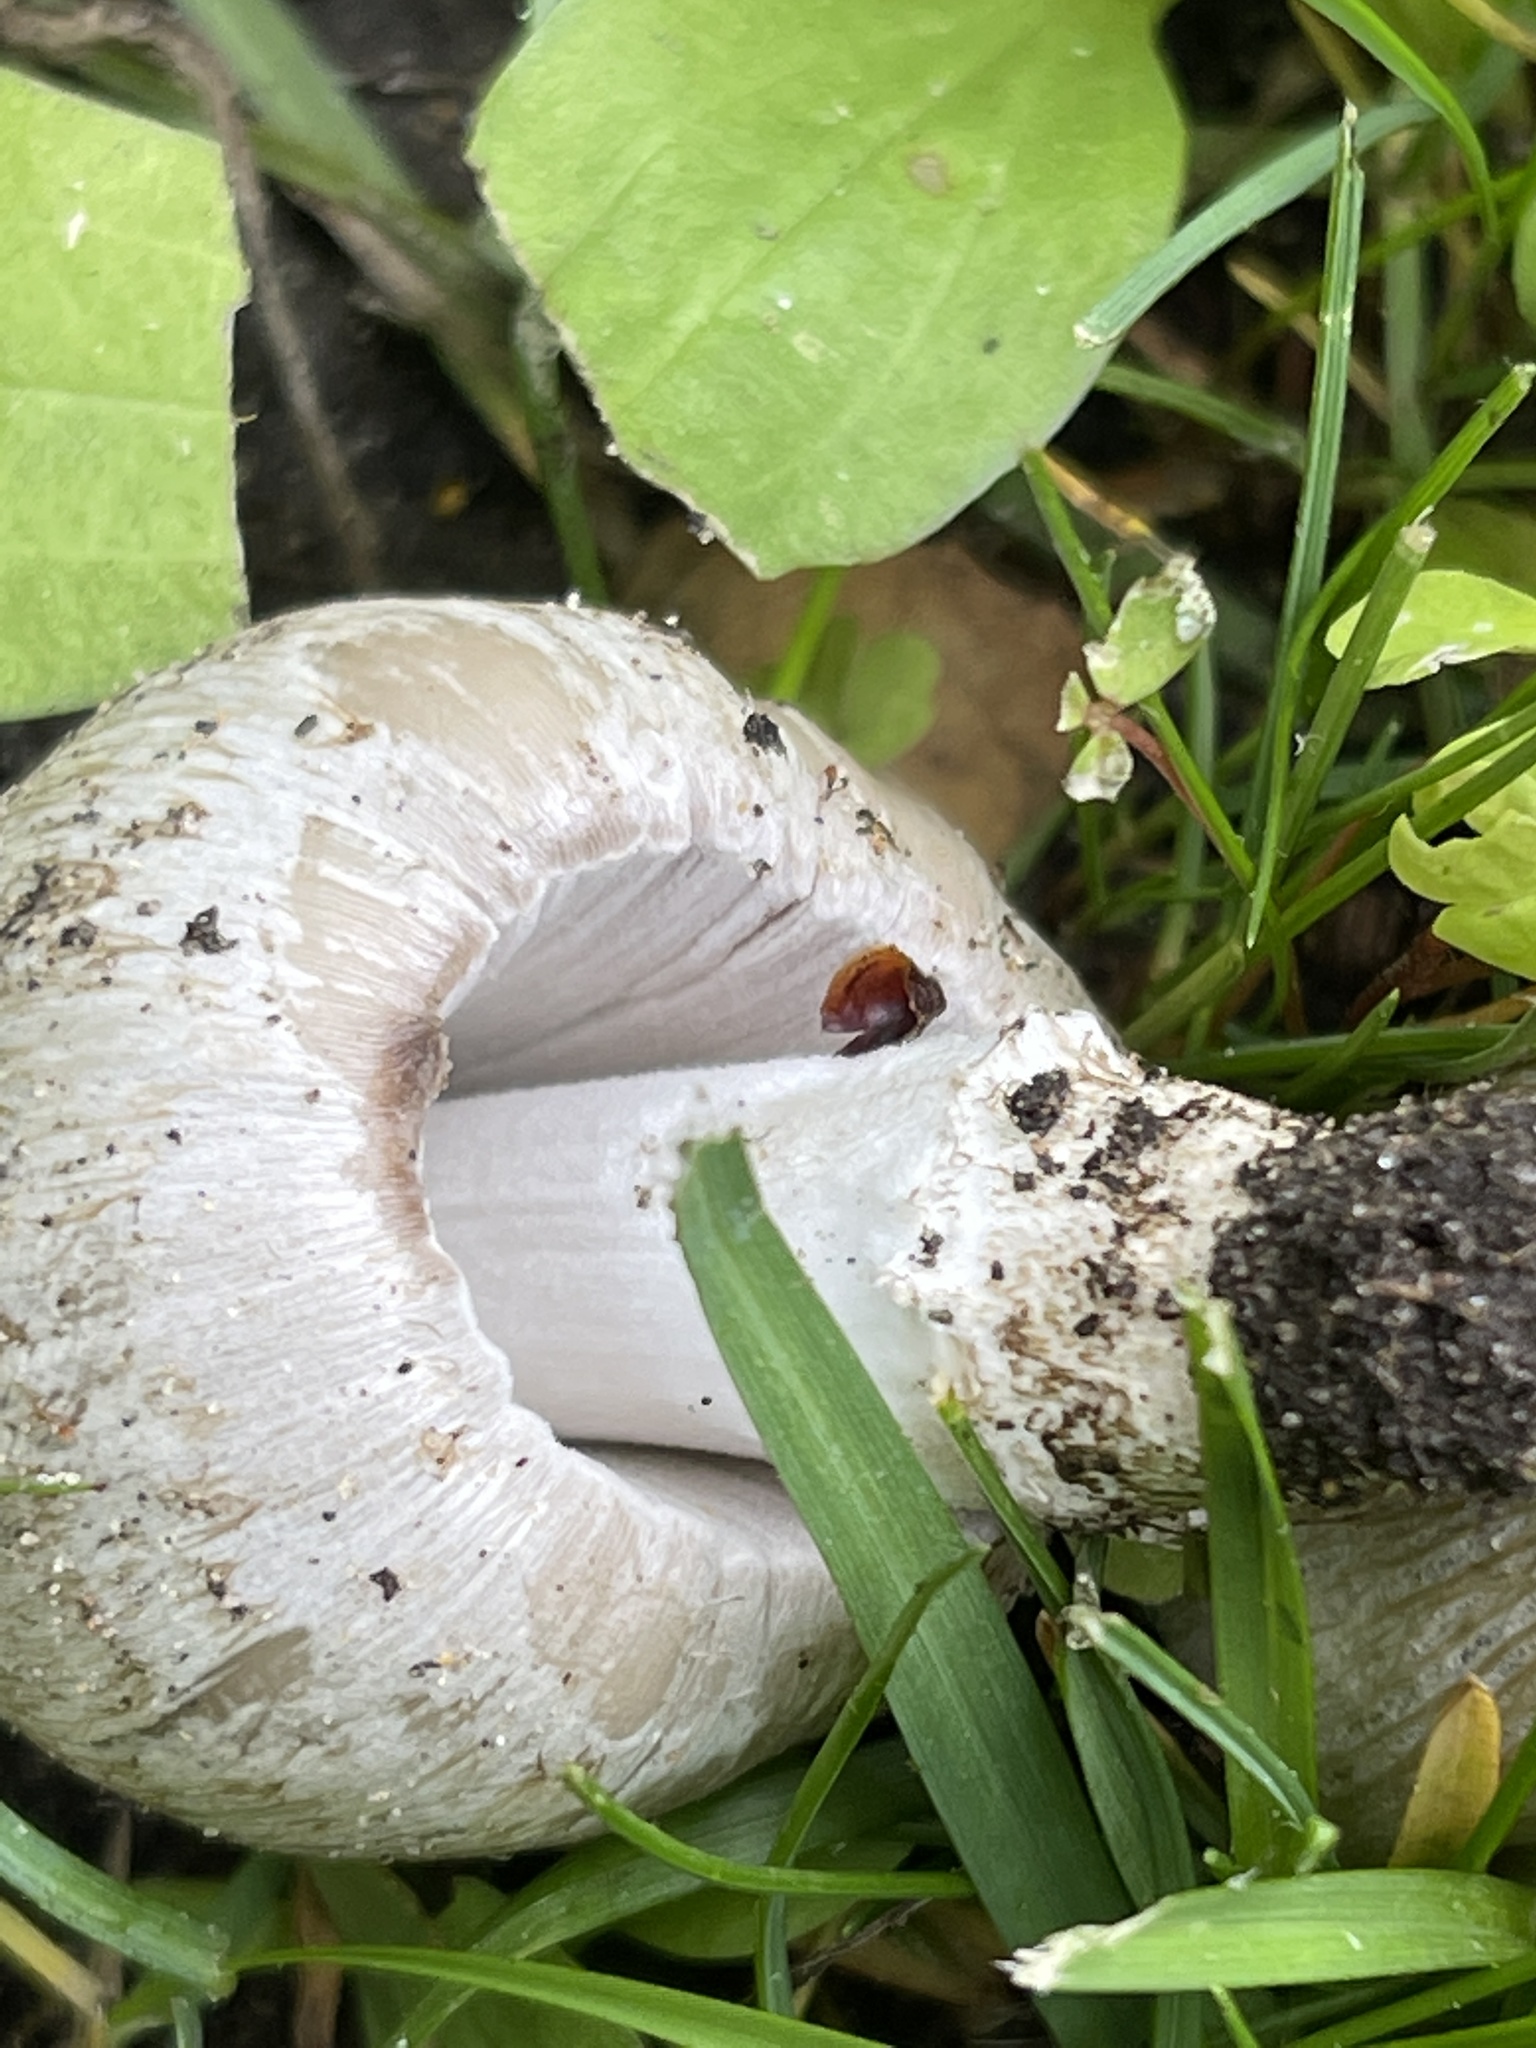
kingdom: Fungi
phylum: Basidiomycota
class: Agaricomycetes
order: Agaricales
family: Psathyrellaceae
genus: Coprinopsis
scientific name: Coprinopsis atramentaria
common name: Common ink-cap
